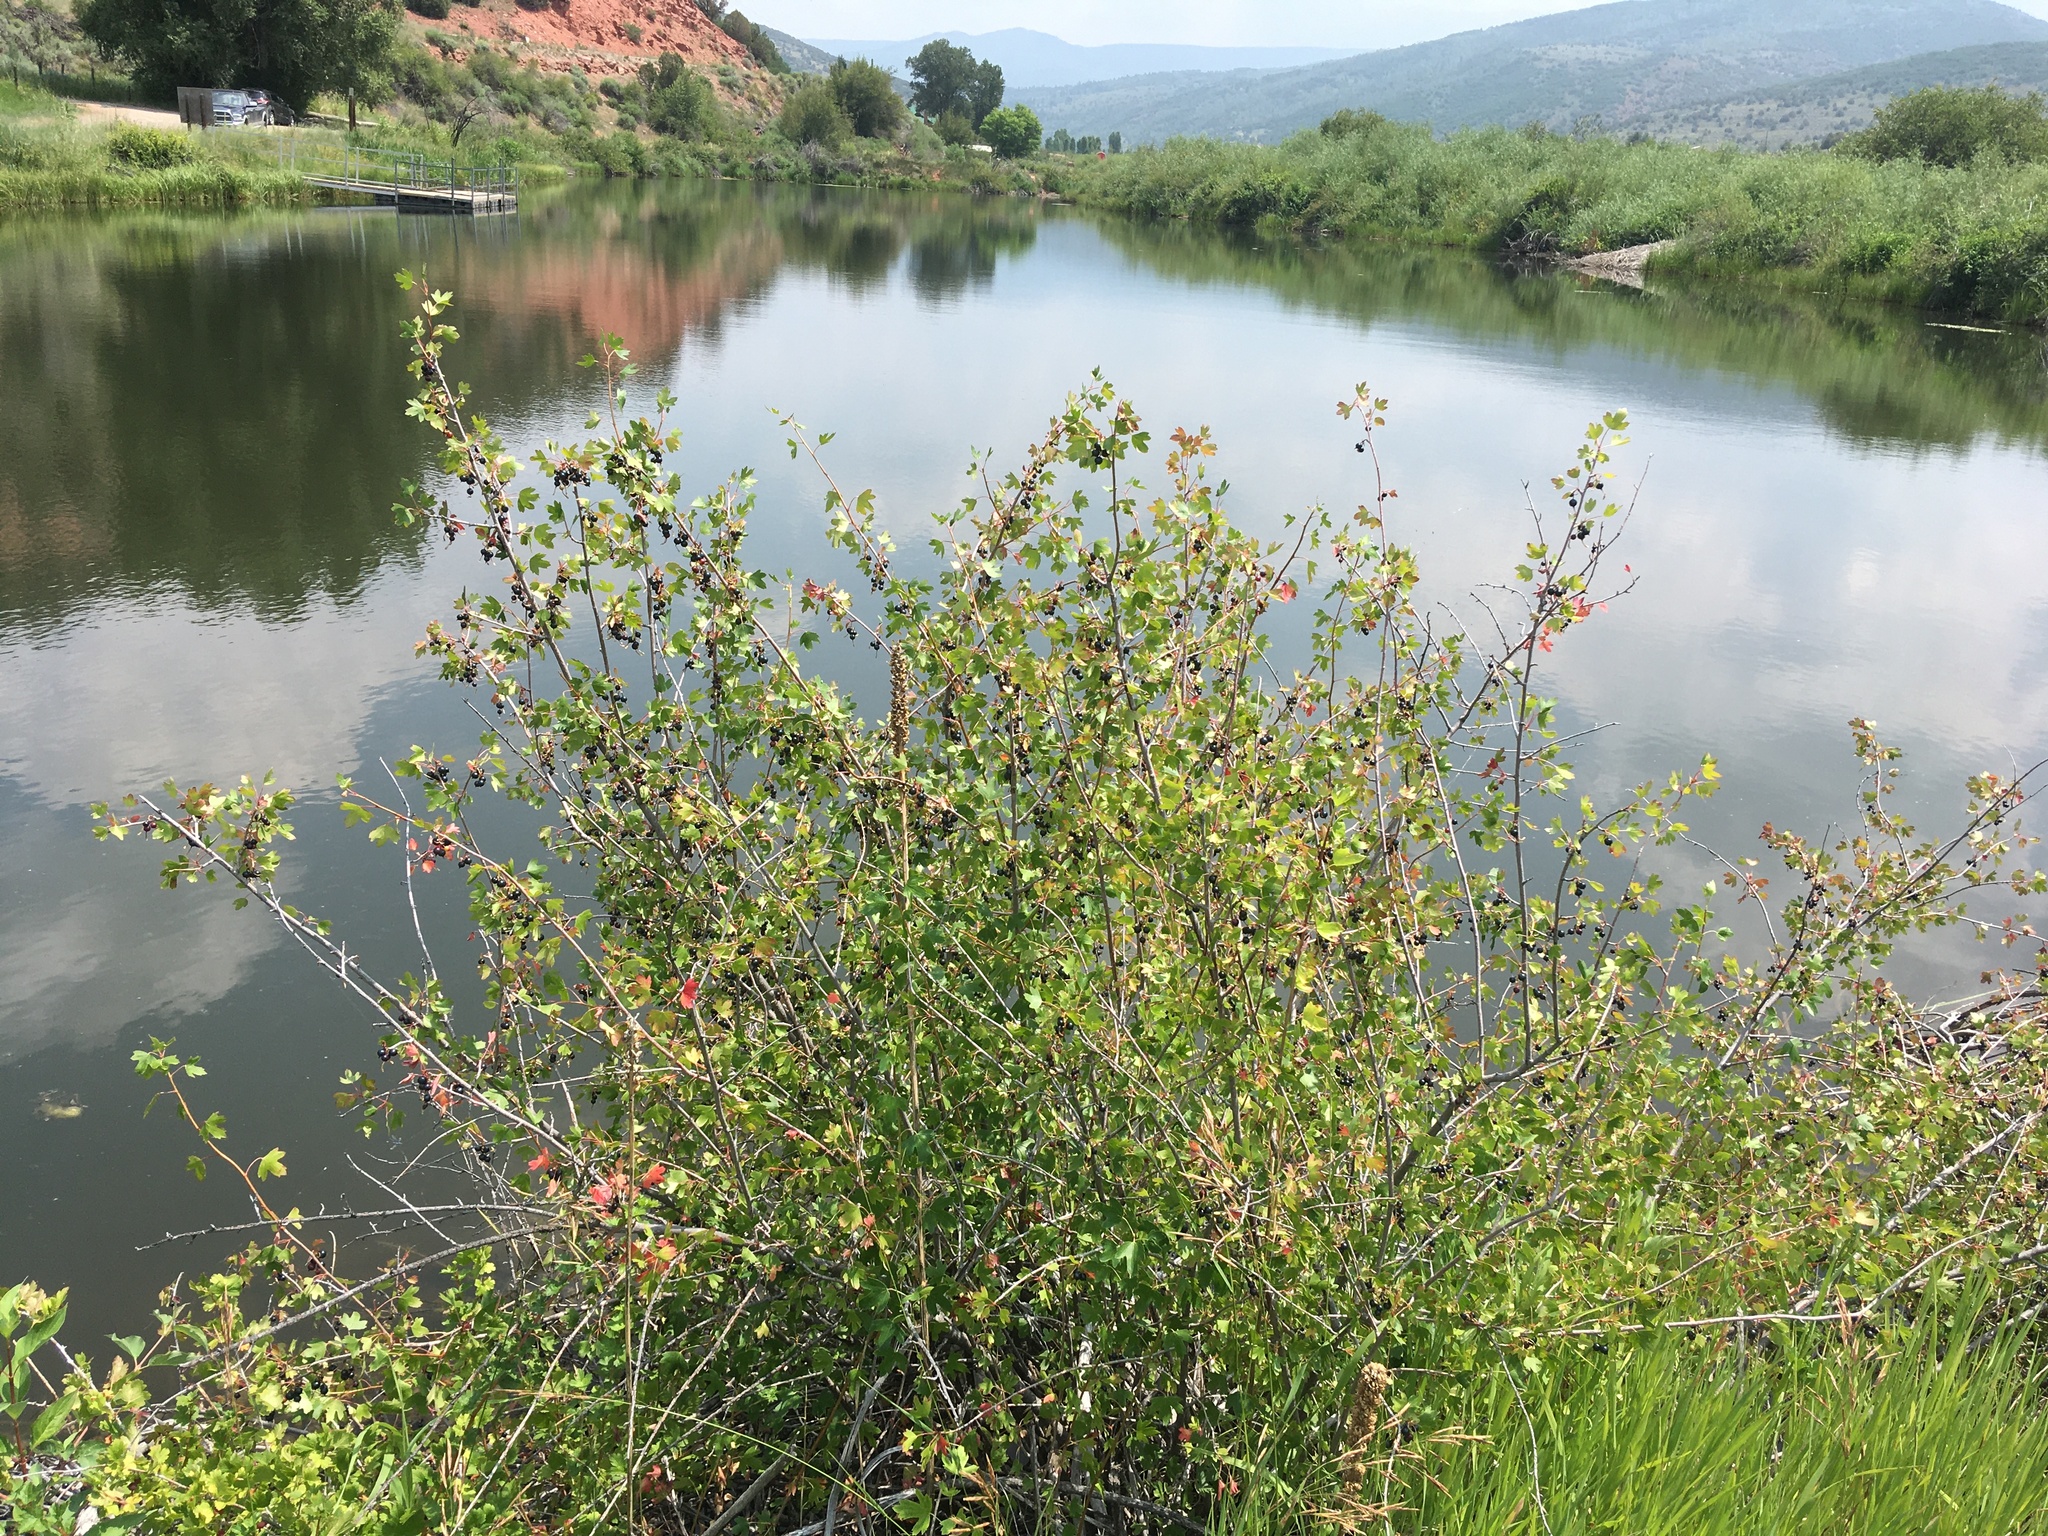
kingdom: Plantae
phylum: Tracheophyta
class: Magnoliopsida
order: Saxifragales
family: Grossulariaceae
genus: Ribes
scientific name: Ribes aureum
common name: Golden currant
